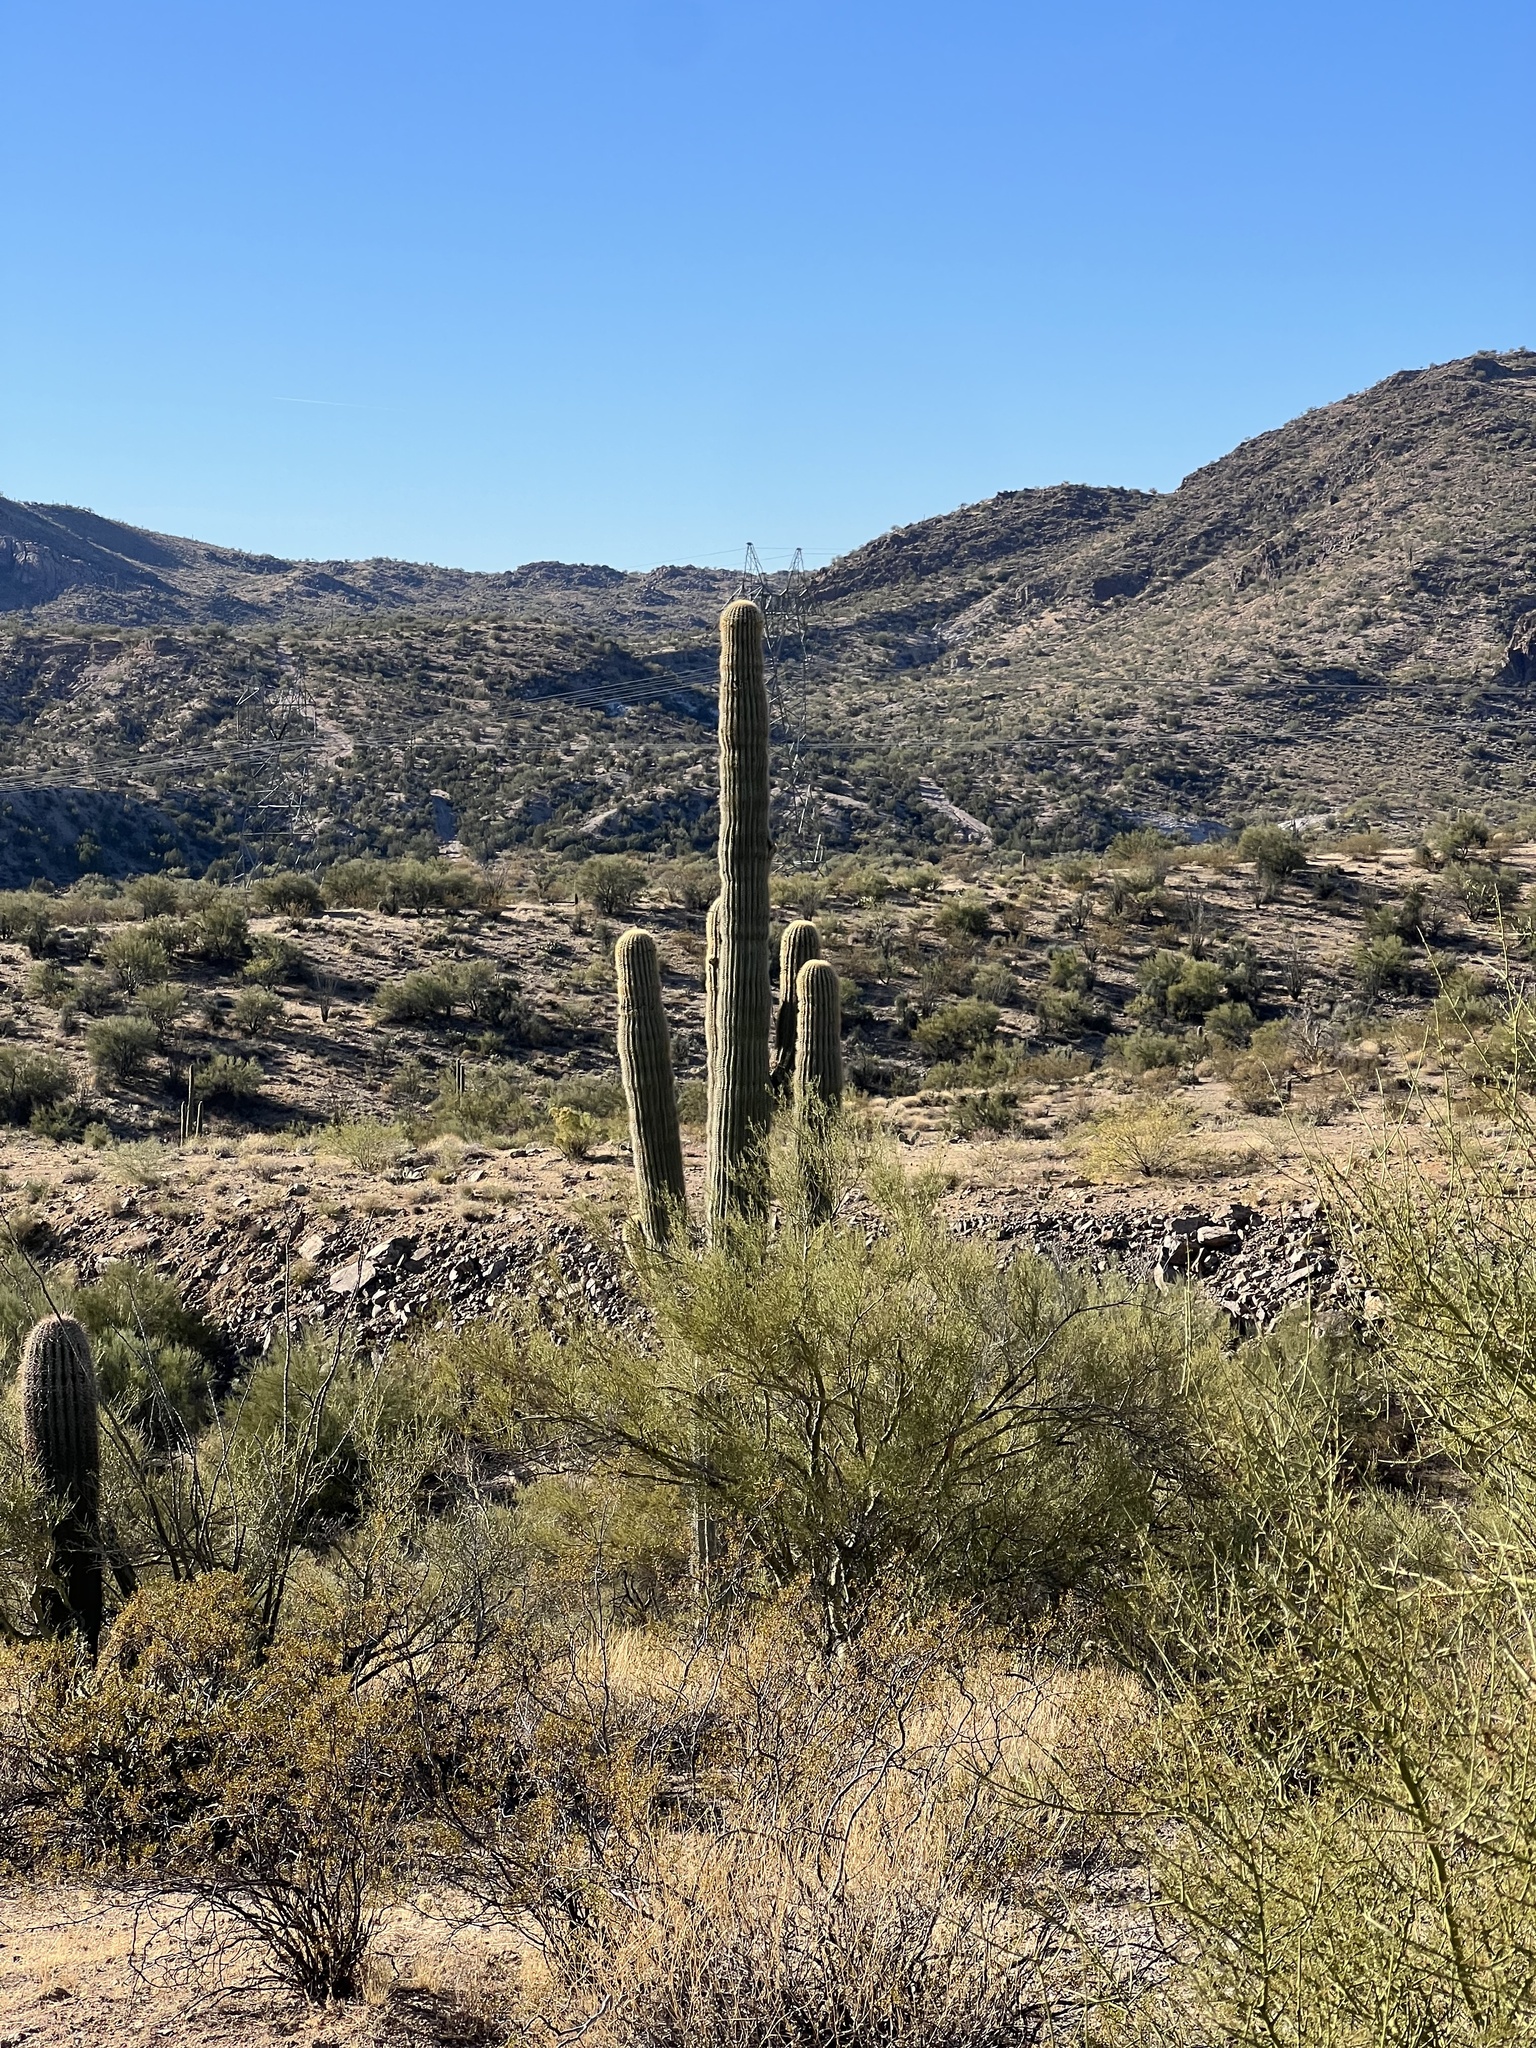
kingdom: Plantae
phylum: Tracheophyta
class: Magnoliopsida
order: Caryophyllales
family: Cactaceae
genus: Carnegiea
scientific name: Carnegiea gigantea
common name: Saguaro
